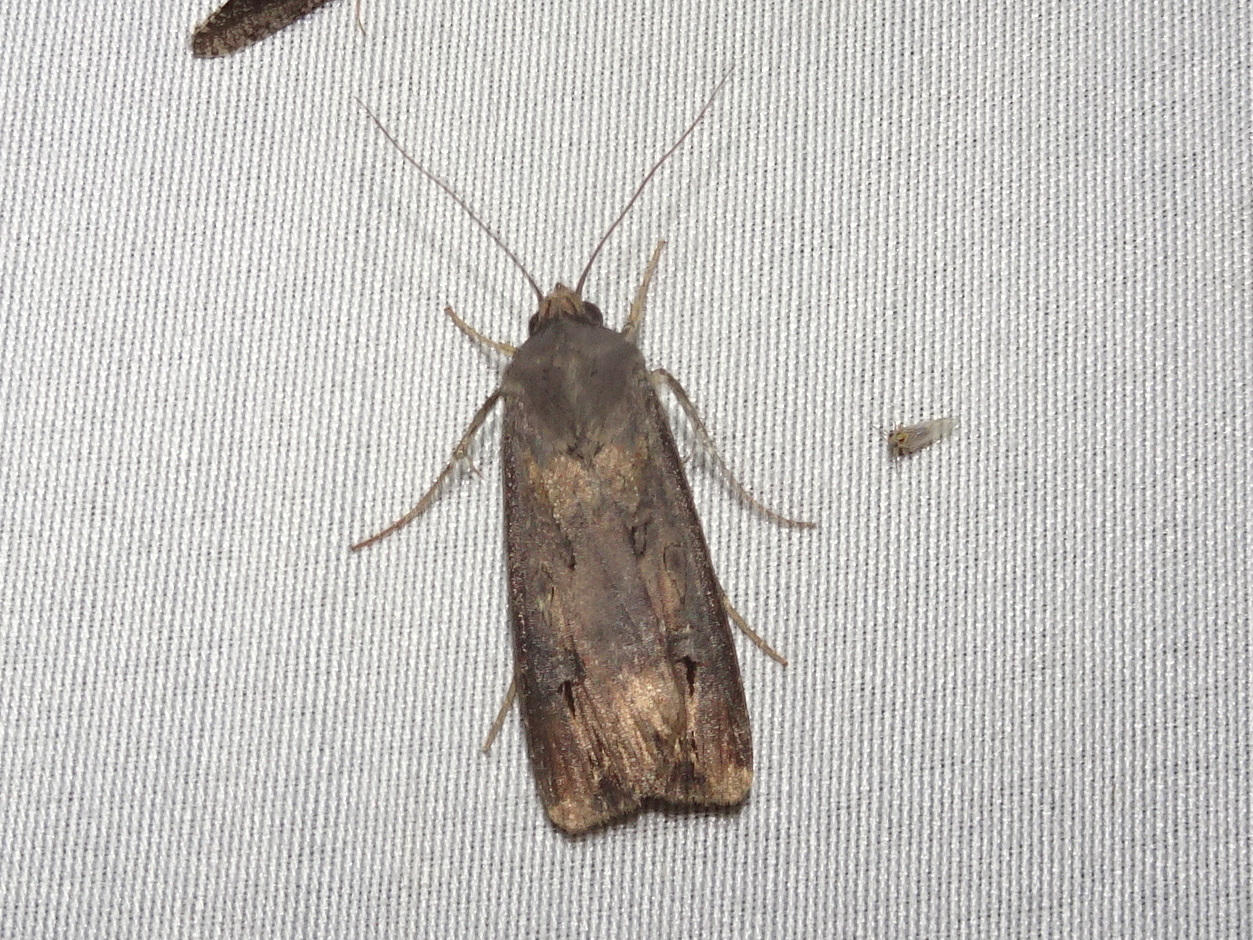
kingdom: Animalia
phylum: Arthropoda
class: Insecta
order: Lepidoptera
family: Noctuidae
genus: Agrotis
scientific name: Agrotis ipsilon
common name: Dark sword-grass
